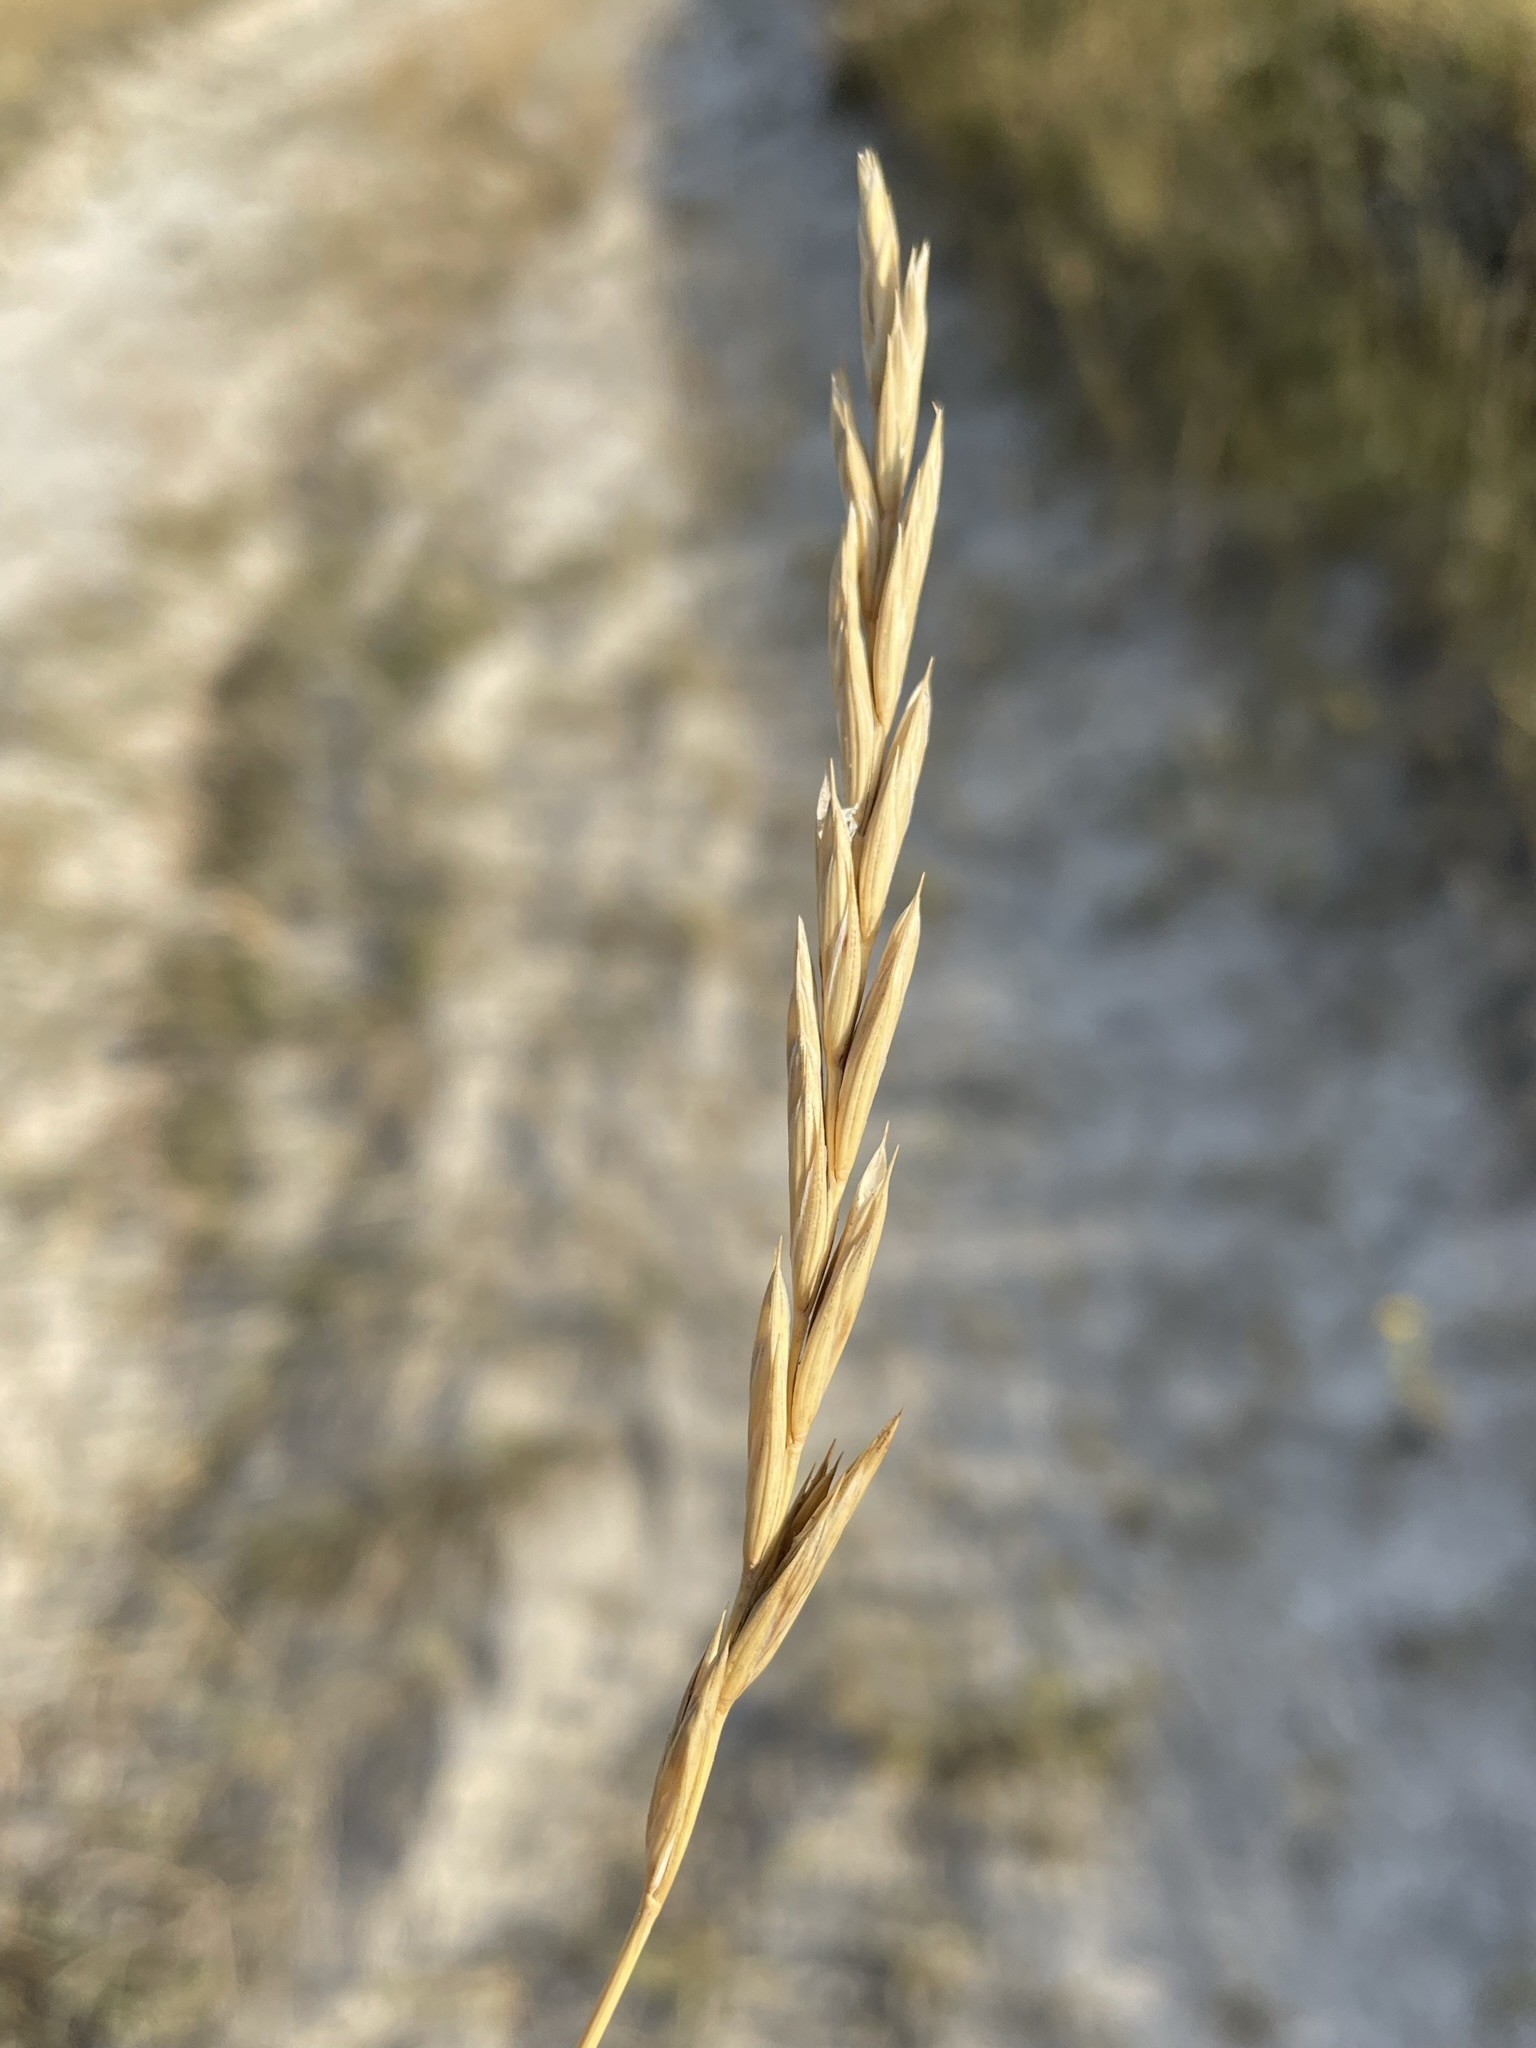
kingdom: Plantae
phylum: Tracheophyta
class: Liliopsida
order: Poales
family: Poaceae
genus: Elymus
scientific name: Elymus smithii
